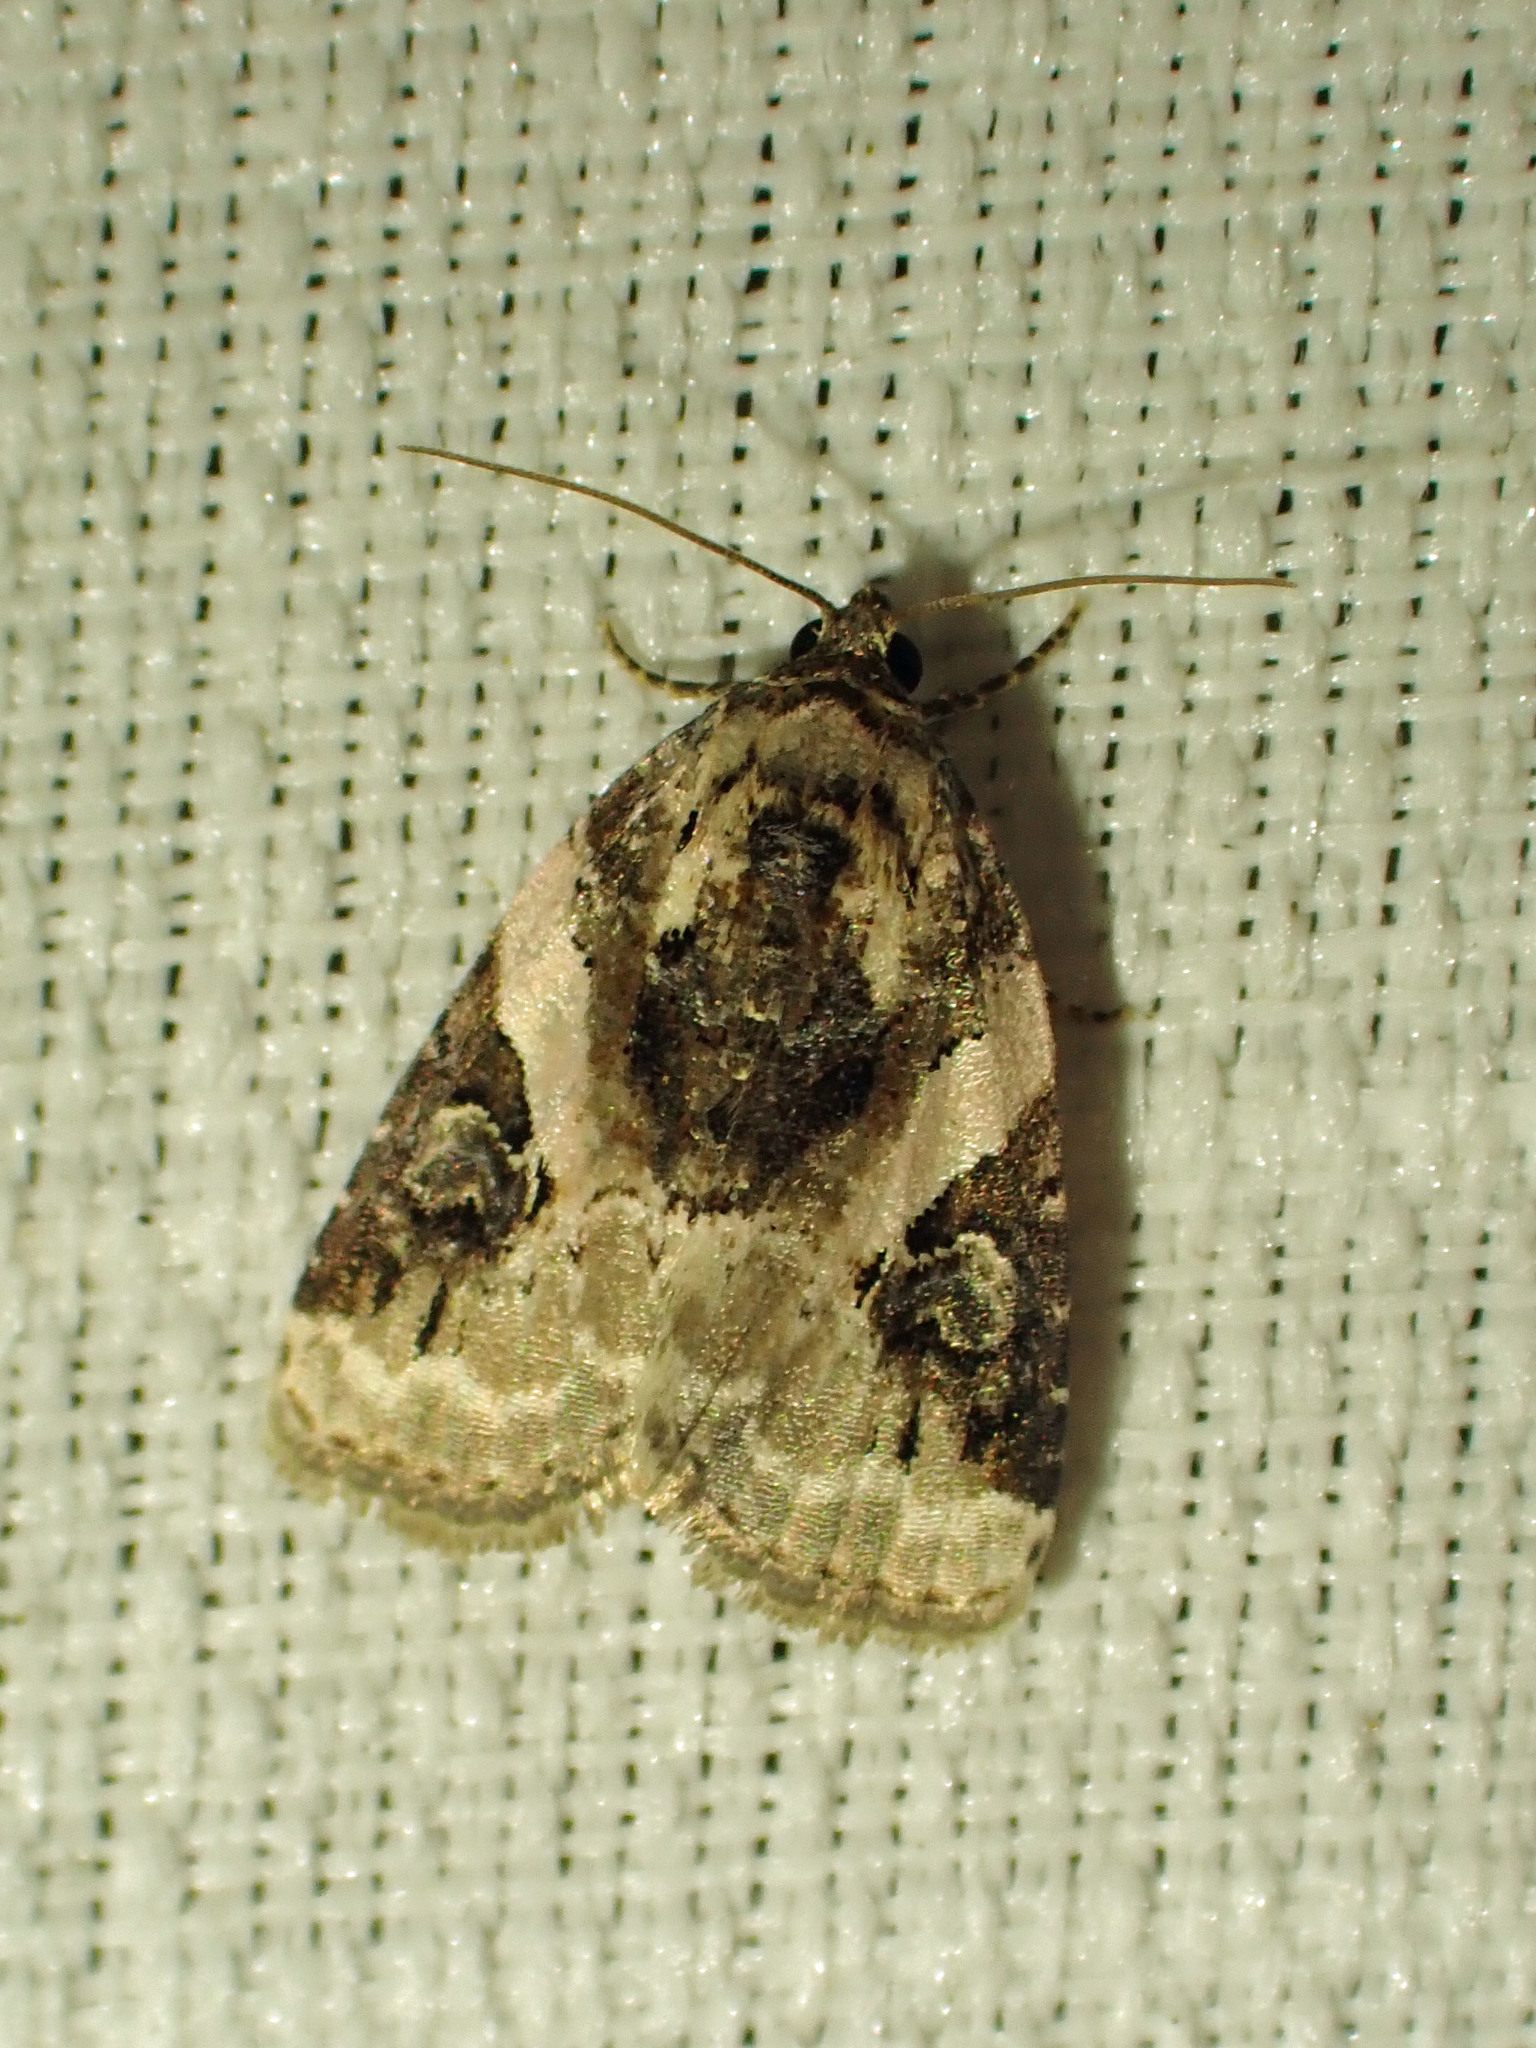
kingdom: Animalia
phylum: Arthropoda
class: Insecta
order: Lepidoptera
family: Noctuidae
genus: Pseudeustrotia
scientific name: Pseudeustrotia carneola
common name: Pink-barred lithacodia moth
